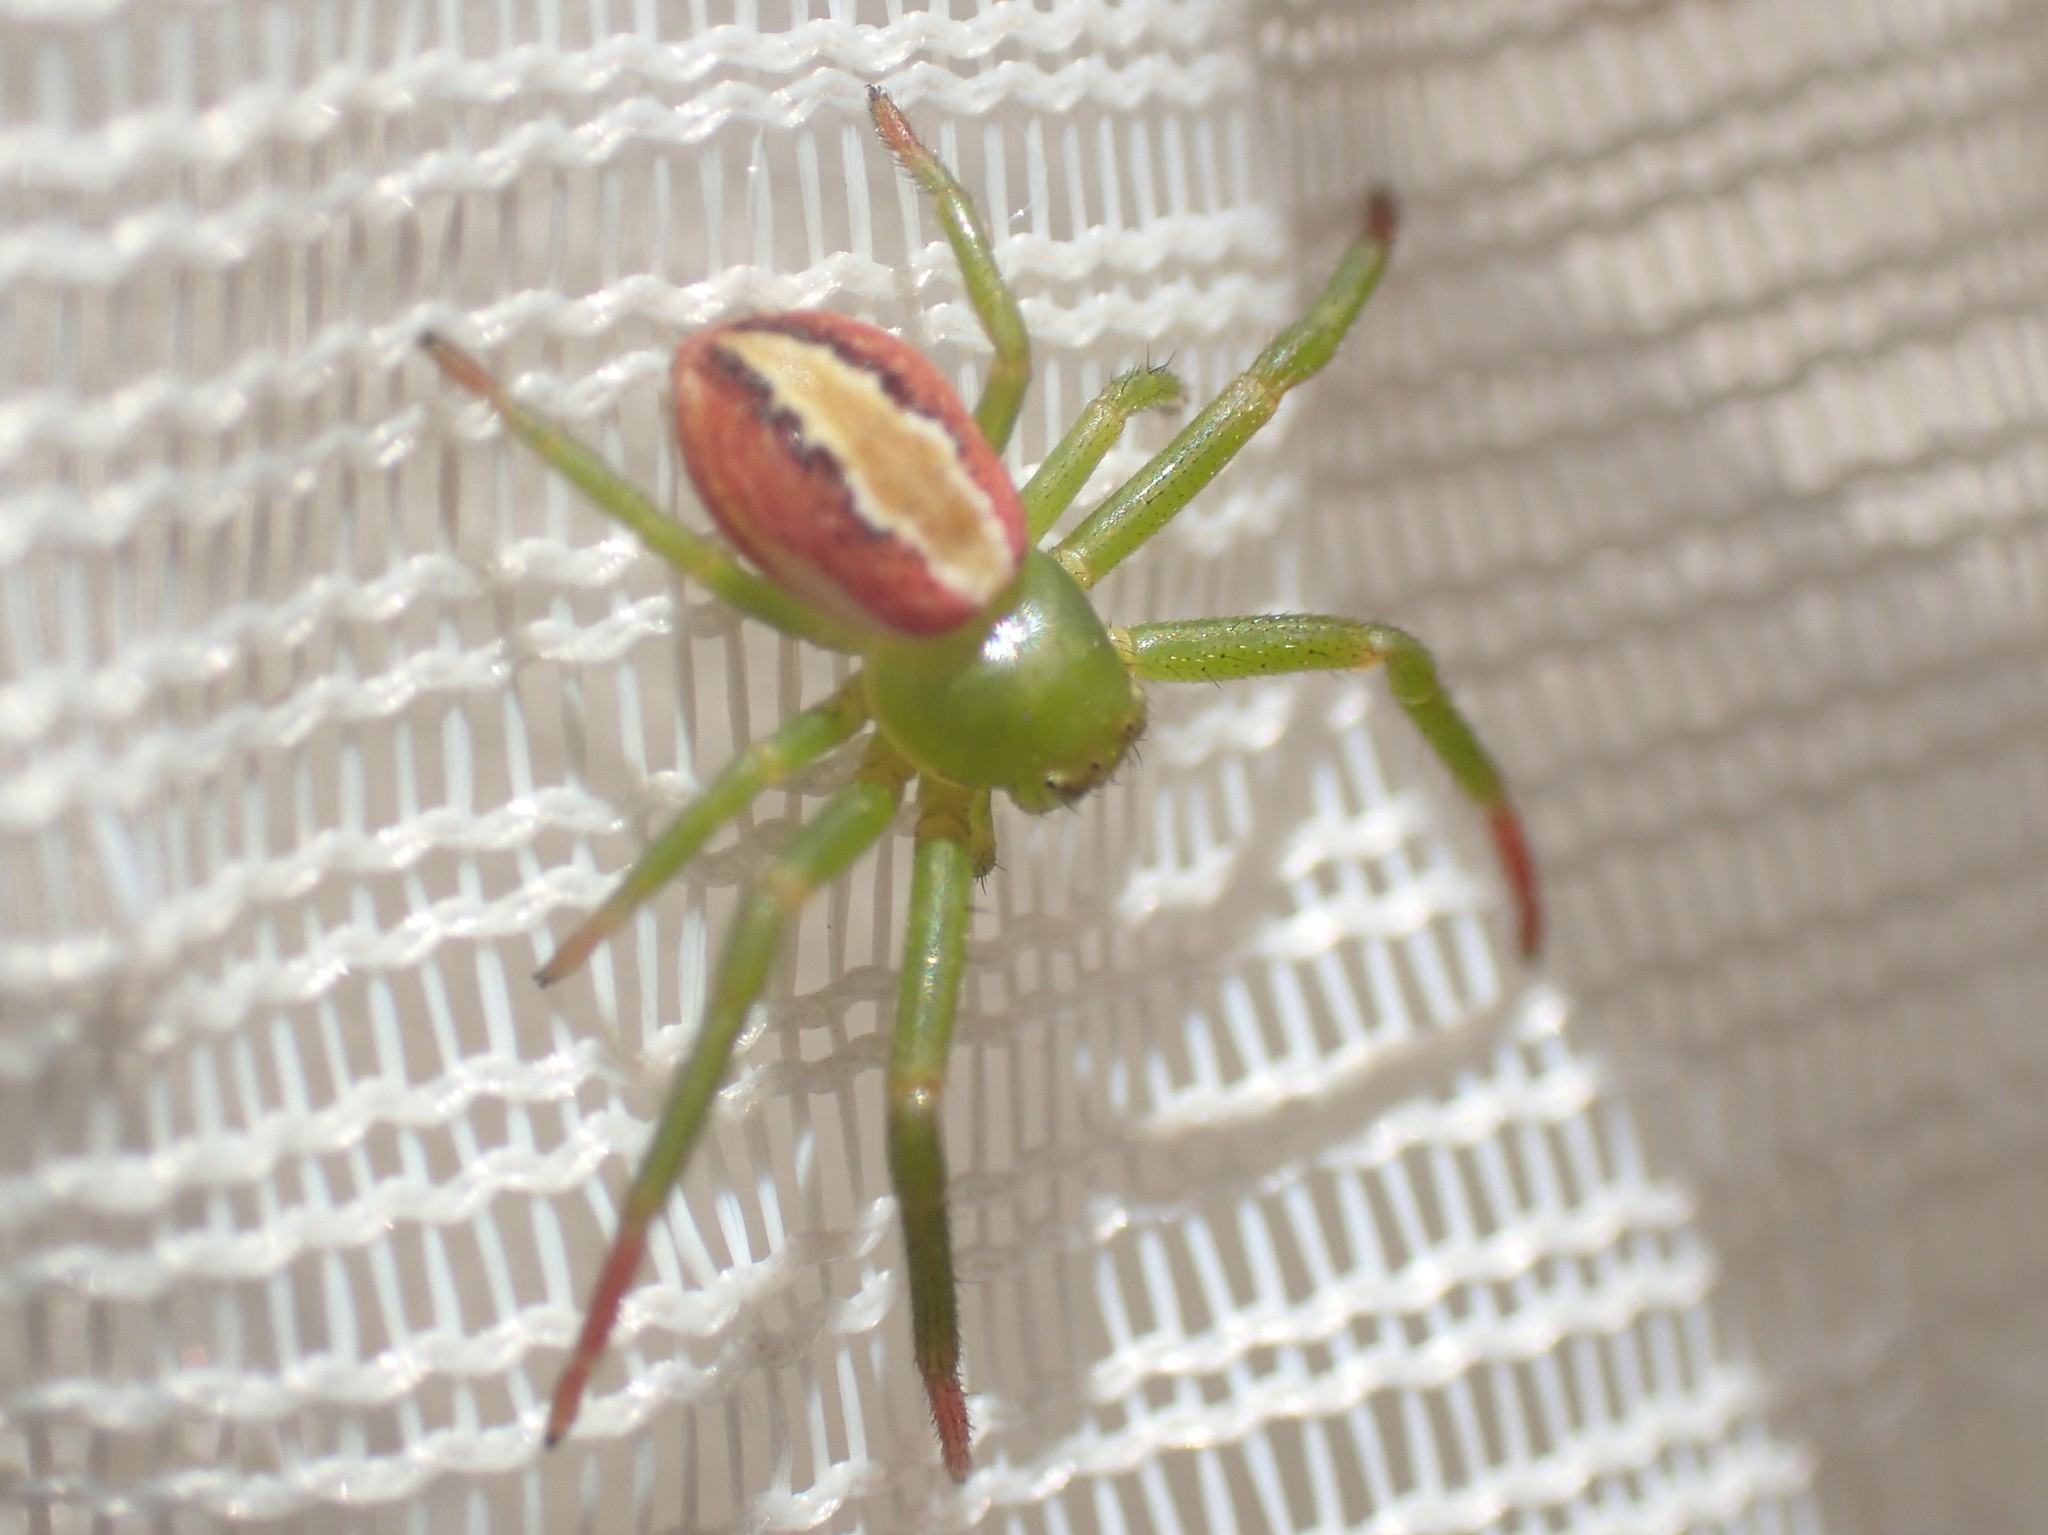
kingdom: Animalia
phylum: Arthropoda
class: Arachnida
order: Araneae
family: Thomisidae
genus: Australomisidia
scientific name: Australomisidia rosea
